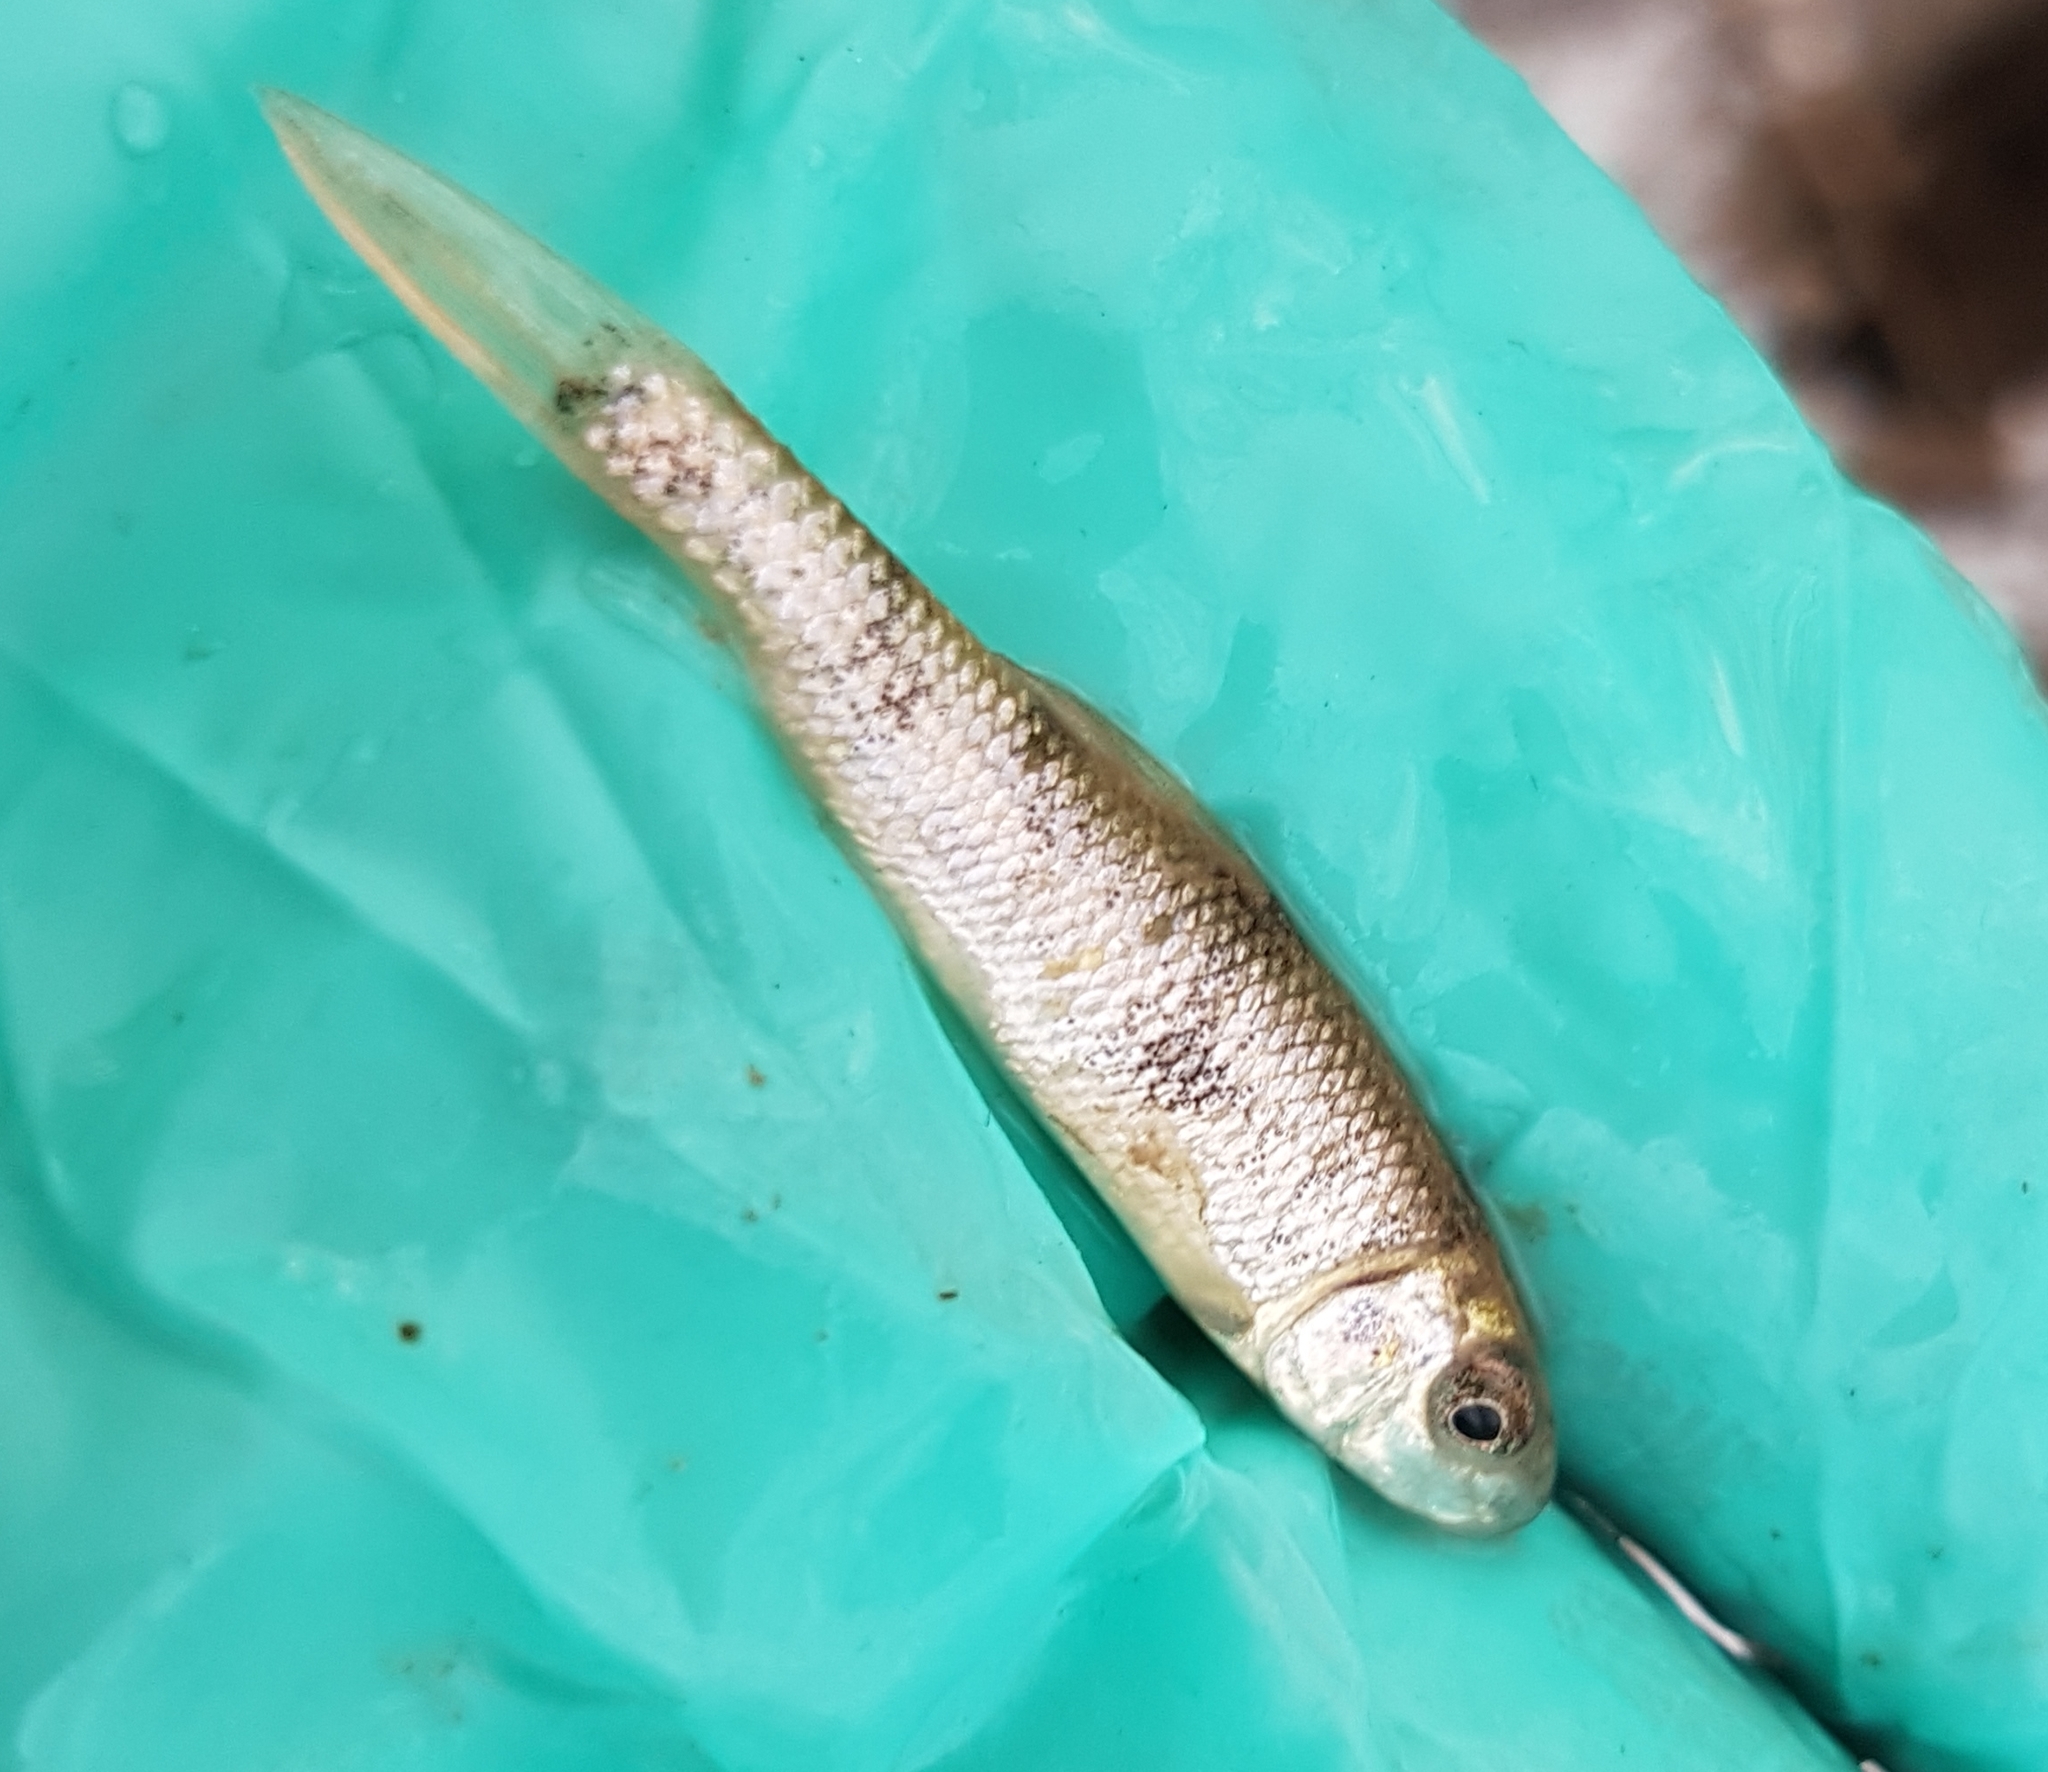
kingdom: Animalia
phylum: Chordata
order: Cypriniformes
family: Catostomidae
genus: Catostomus
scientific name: Catostomus commersonii
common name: White sucker
